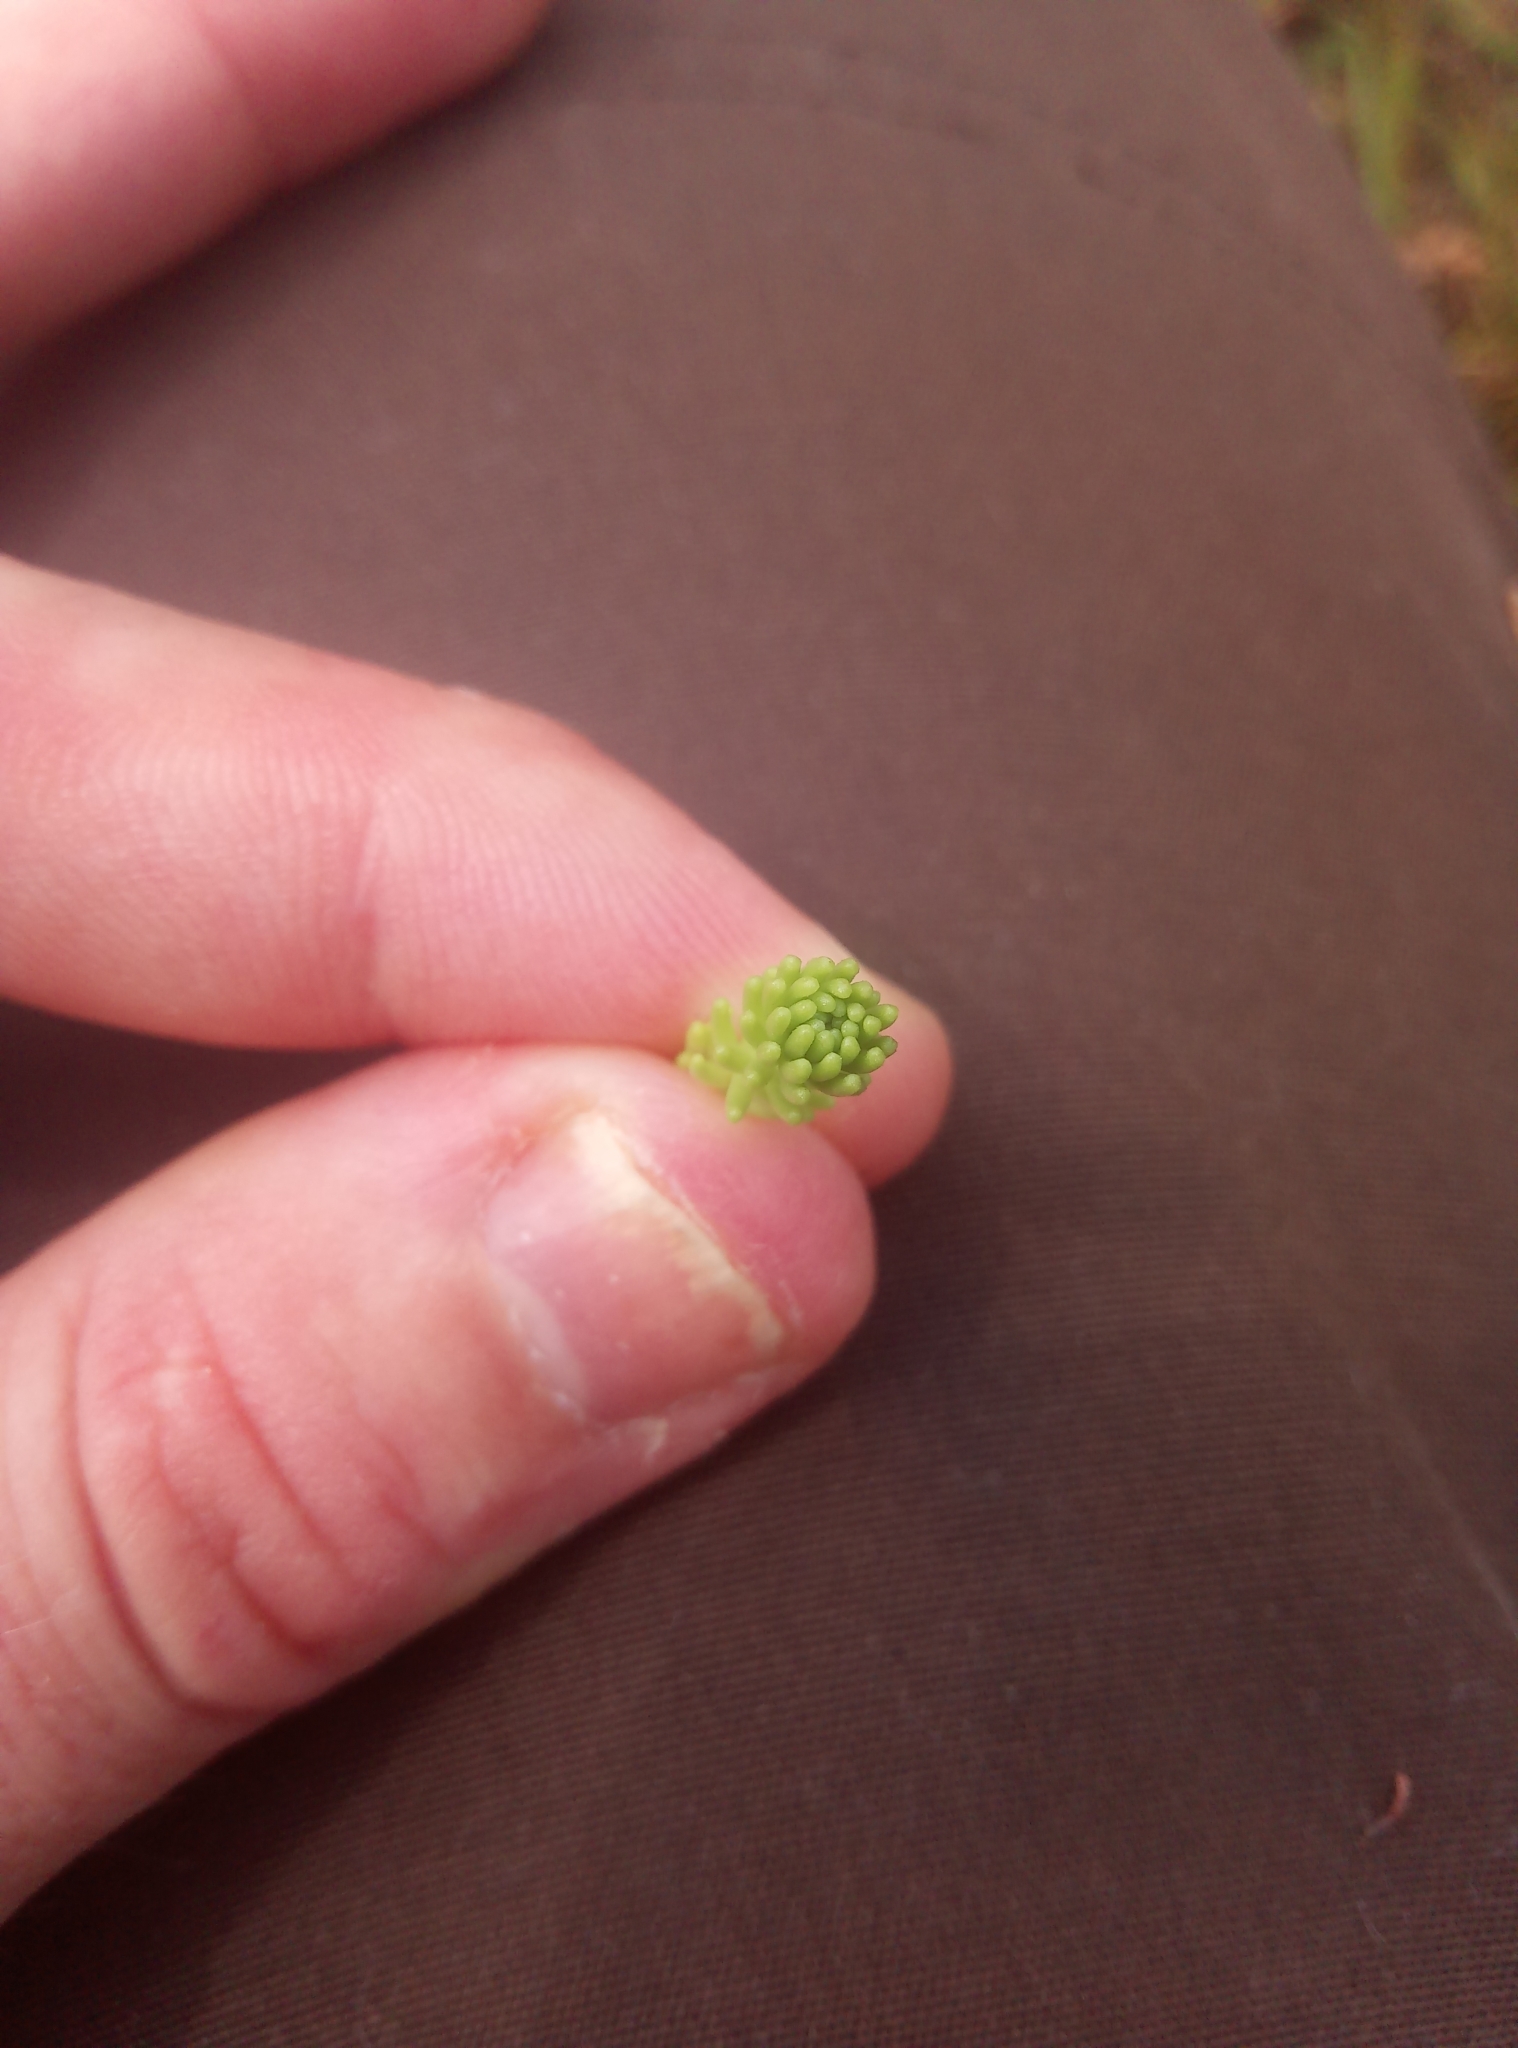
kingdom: Plantae
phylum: Tracheophyta
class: Magnoliopsida
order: Saxifragales
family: Crassulaceae
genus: Sedum
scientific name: Sedum sexangulare
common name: Tasteless stonecrop
